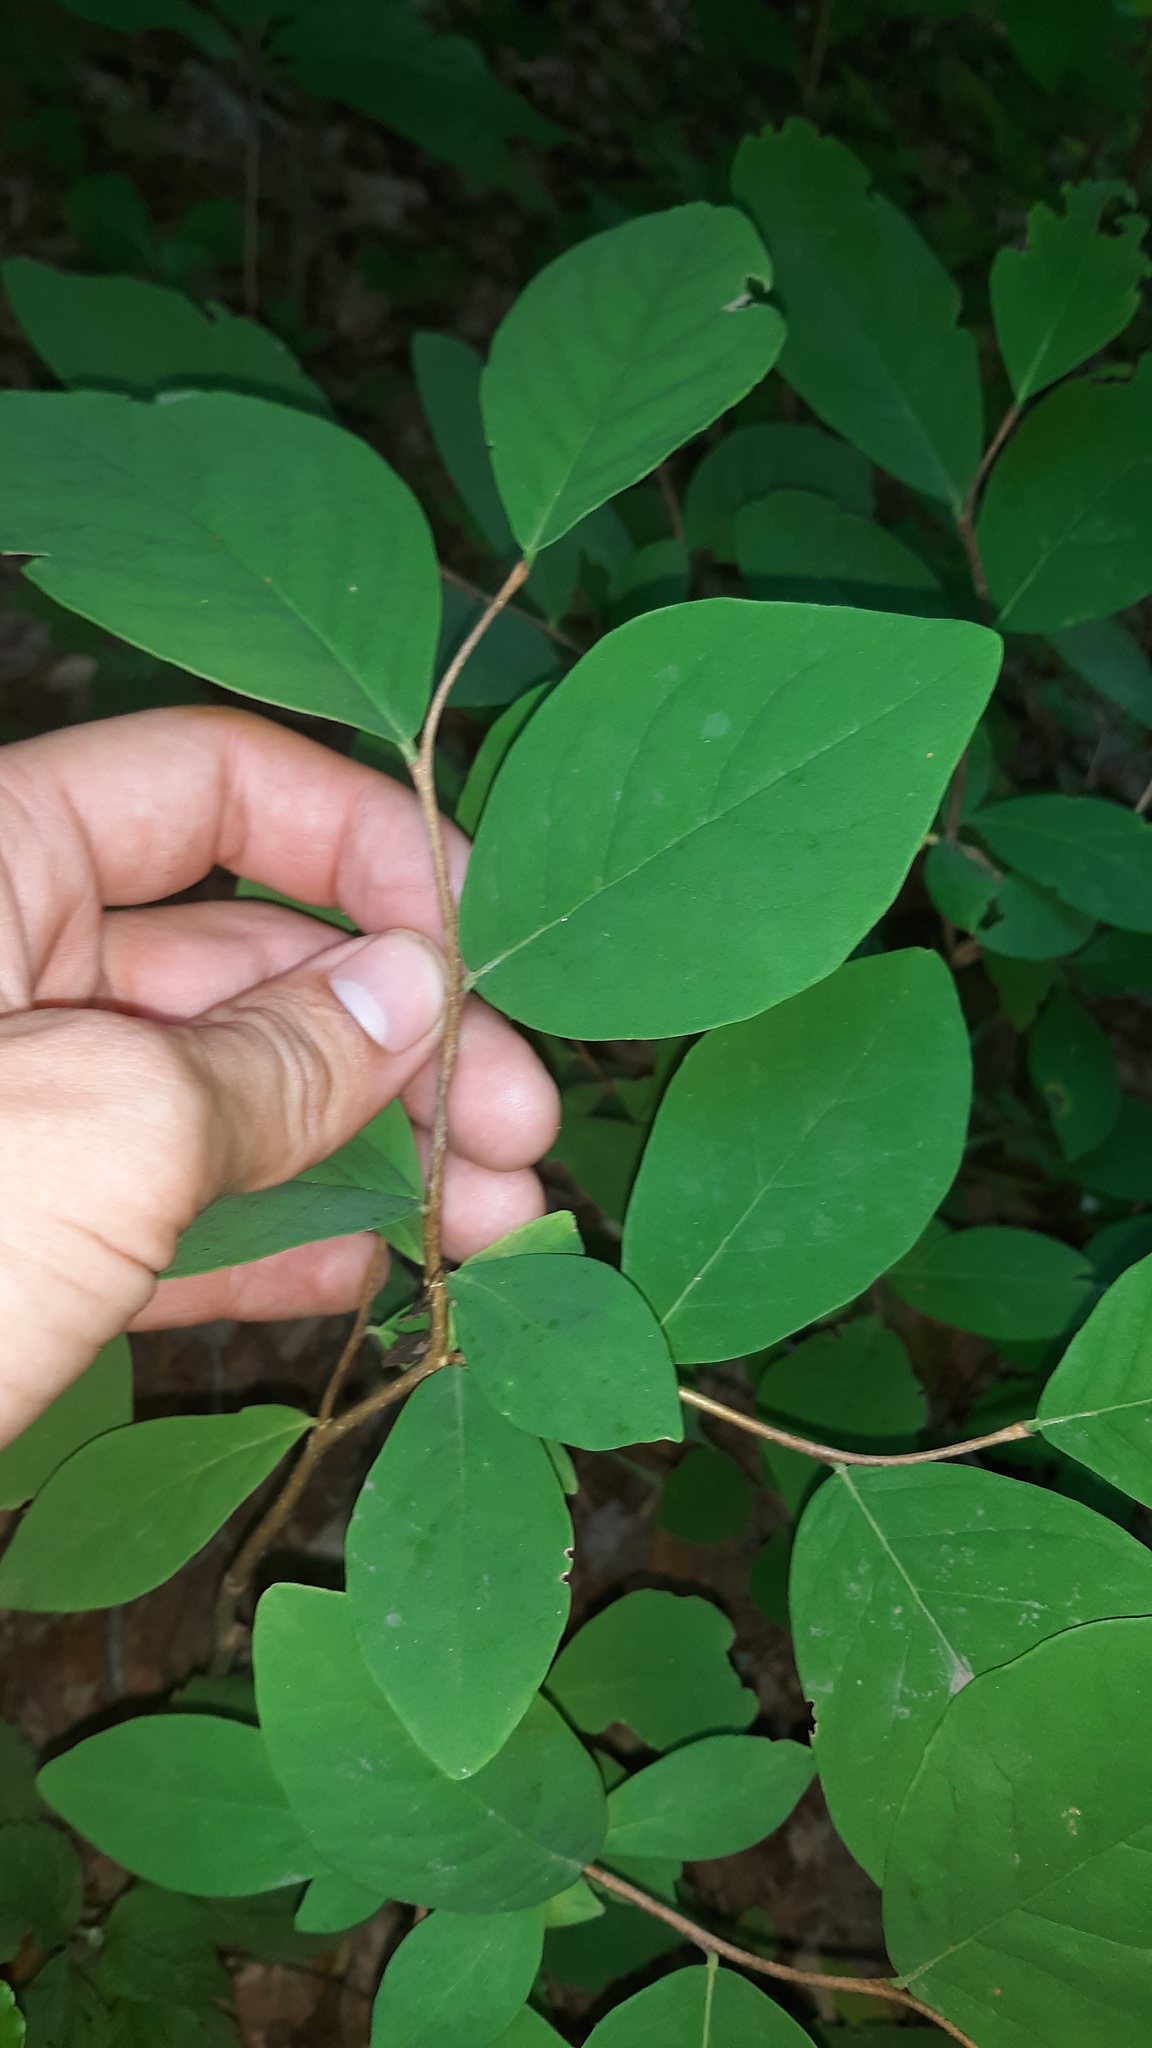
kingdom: Plantae
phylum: Tracheophyta
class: Magnoliopsida
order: Malvales
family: Thymelaeaceae
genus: Dirca
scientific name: Dirca palustris
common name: Leatherwood
